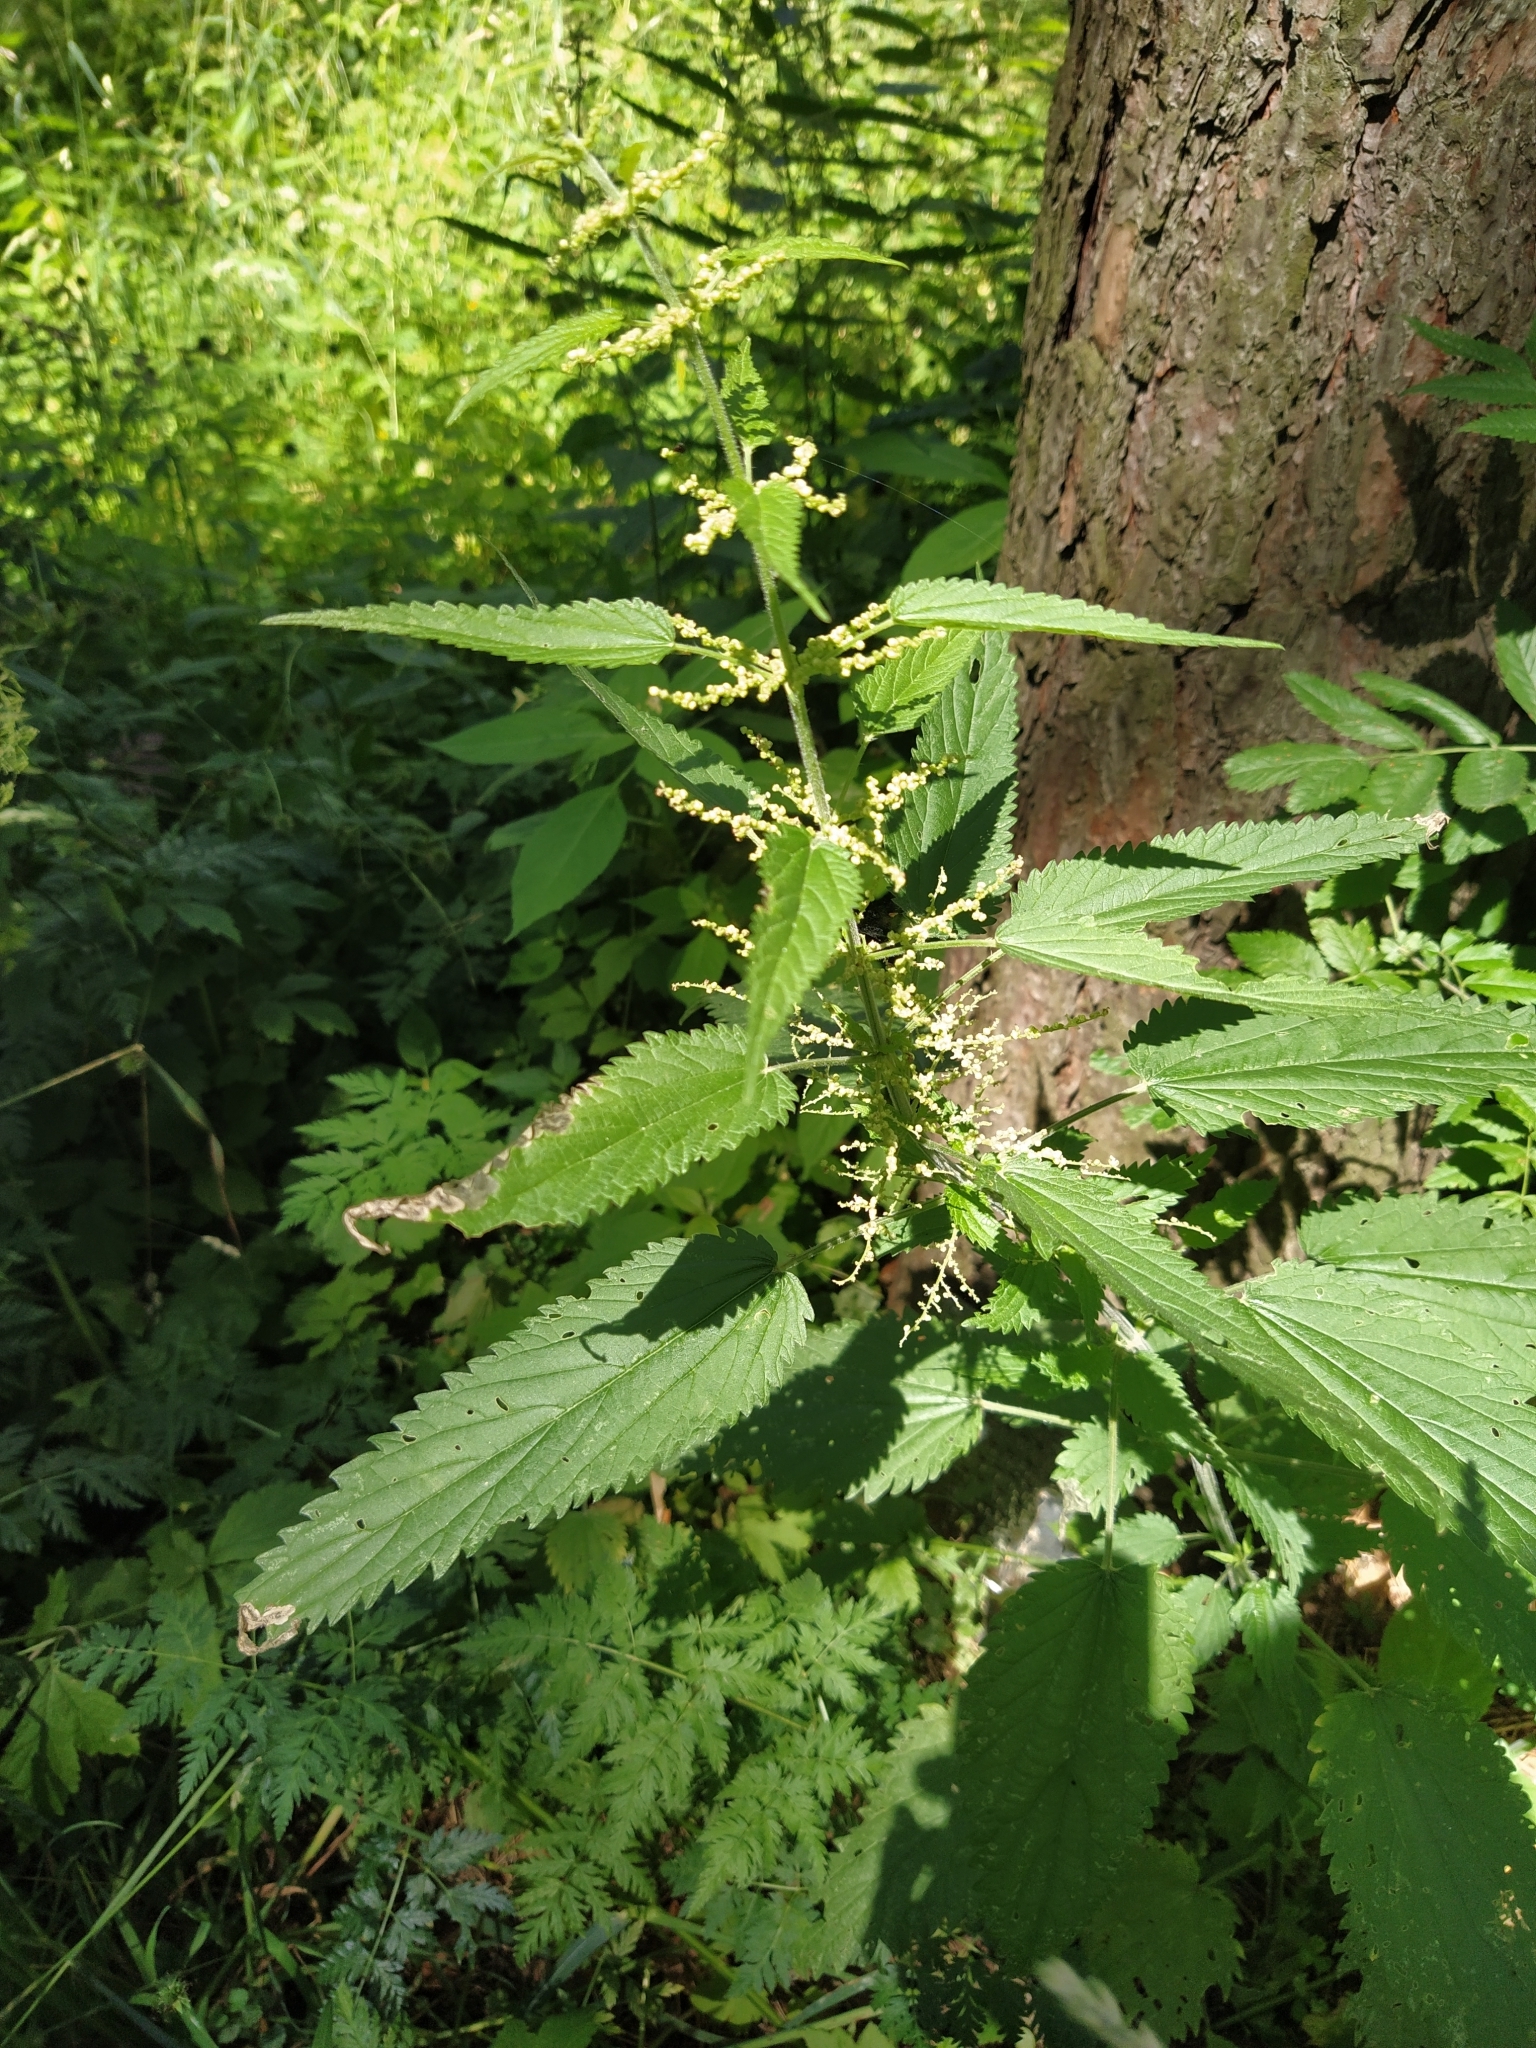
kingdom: Plantae
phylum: Tracheophyta
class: Magnoliopsida
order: Rosales
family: Urticaceae
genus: Urtica
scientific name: Urtica dioica
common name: Common nettle
